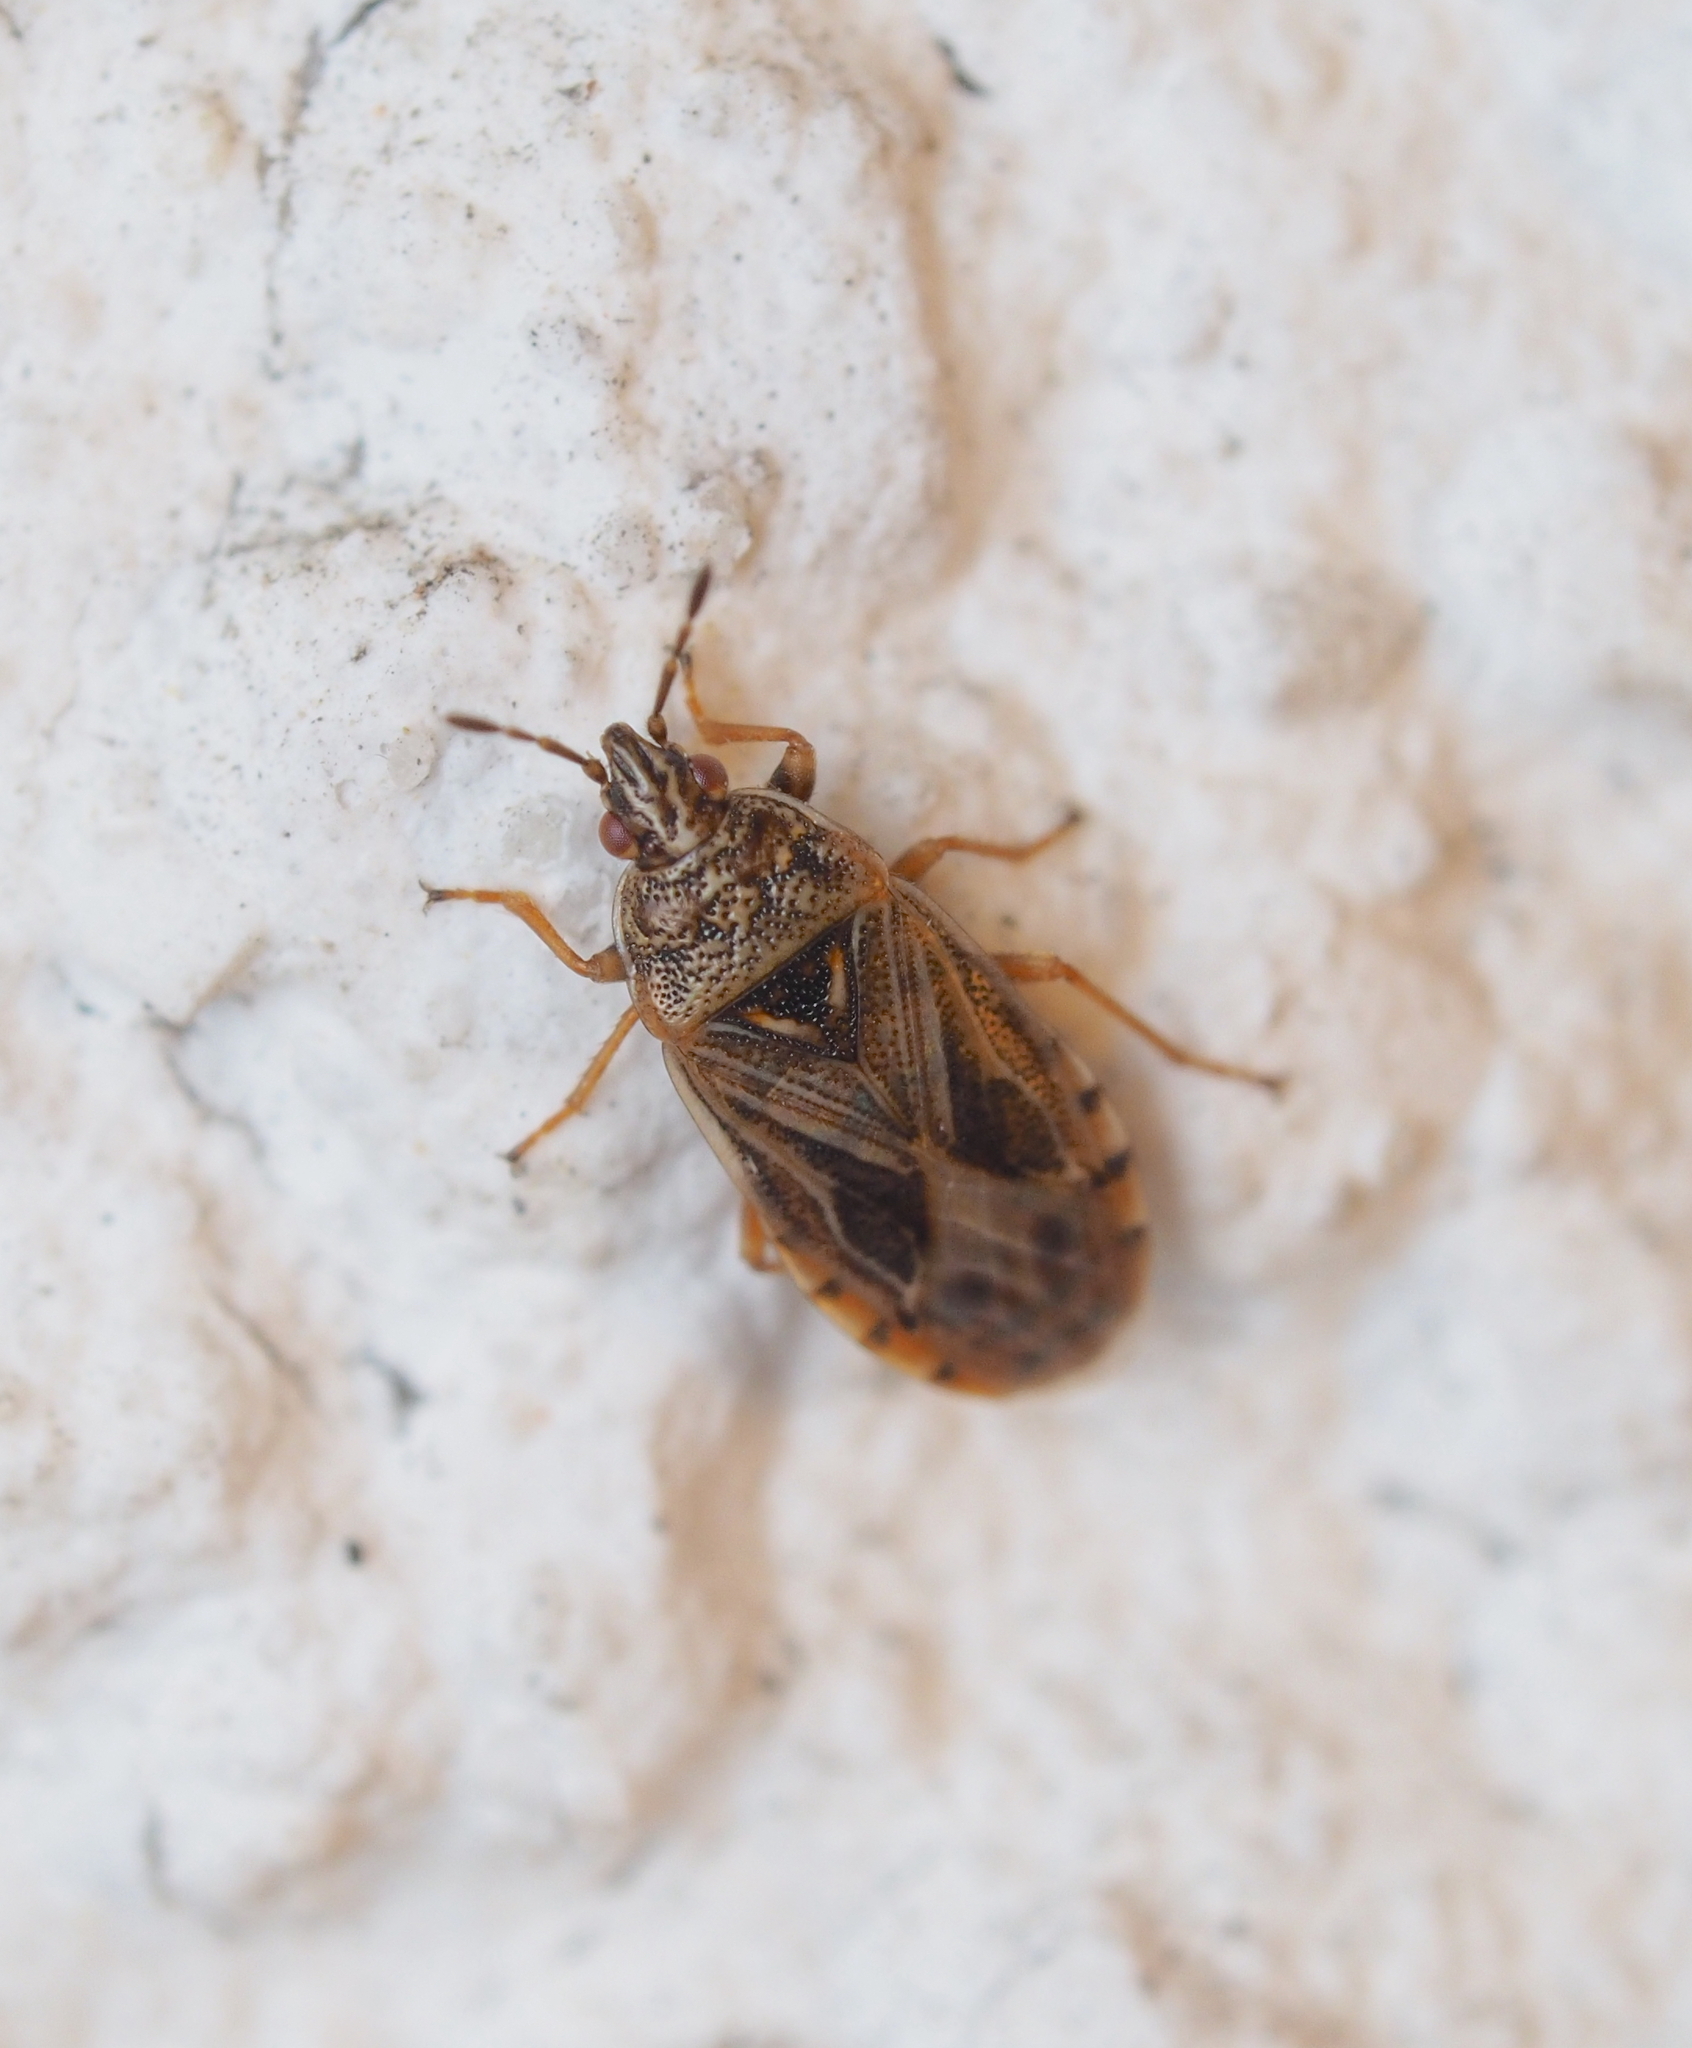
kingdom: Animalia
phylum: Arthropoda
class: Insecta
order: Hemiptera
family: Artheneidae
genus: Chilacis
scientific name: Chilacis typhae
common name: Cattail bug
